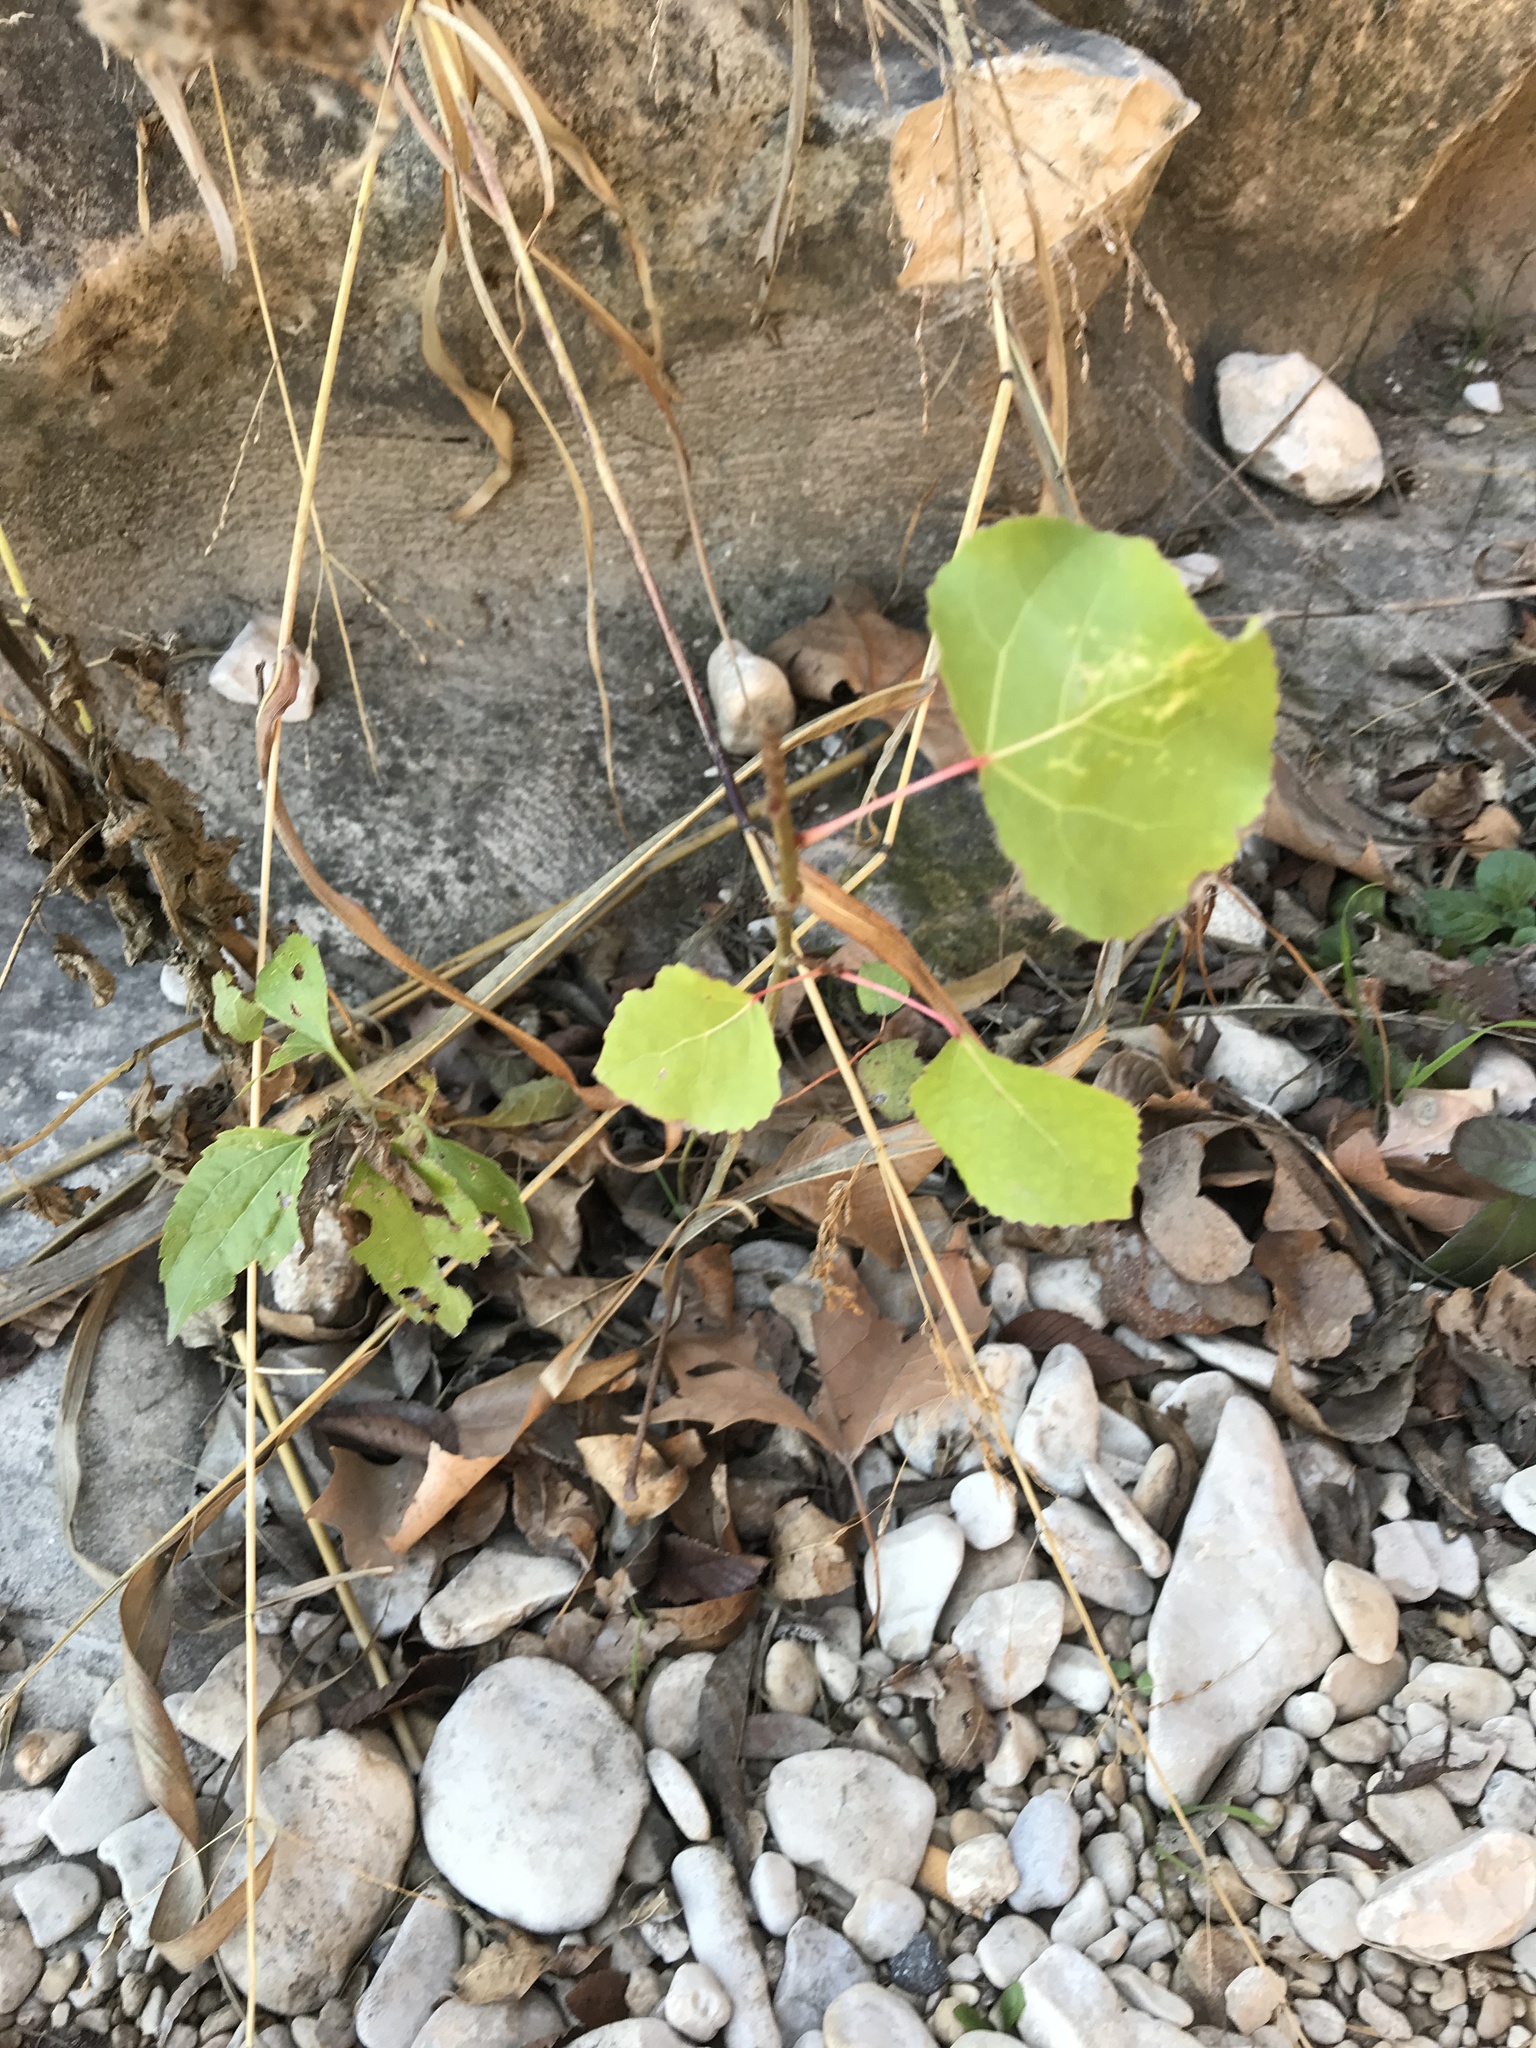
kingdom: Plantae
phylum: Tracheophyta
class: Magnoliopsida
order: Malpighiales
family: Salicaceae
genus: Populus
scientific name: Populus deltoides
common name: Eastern cottonwood
